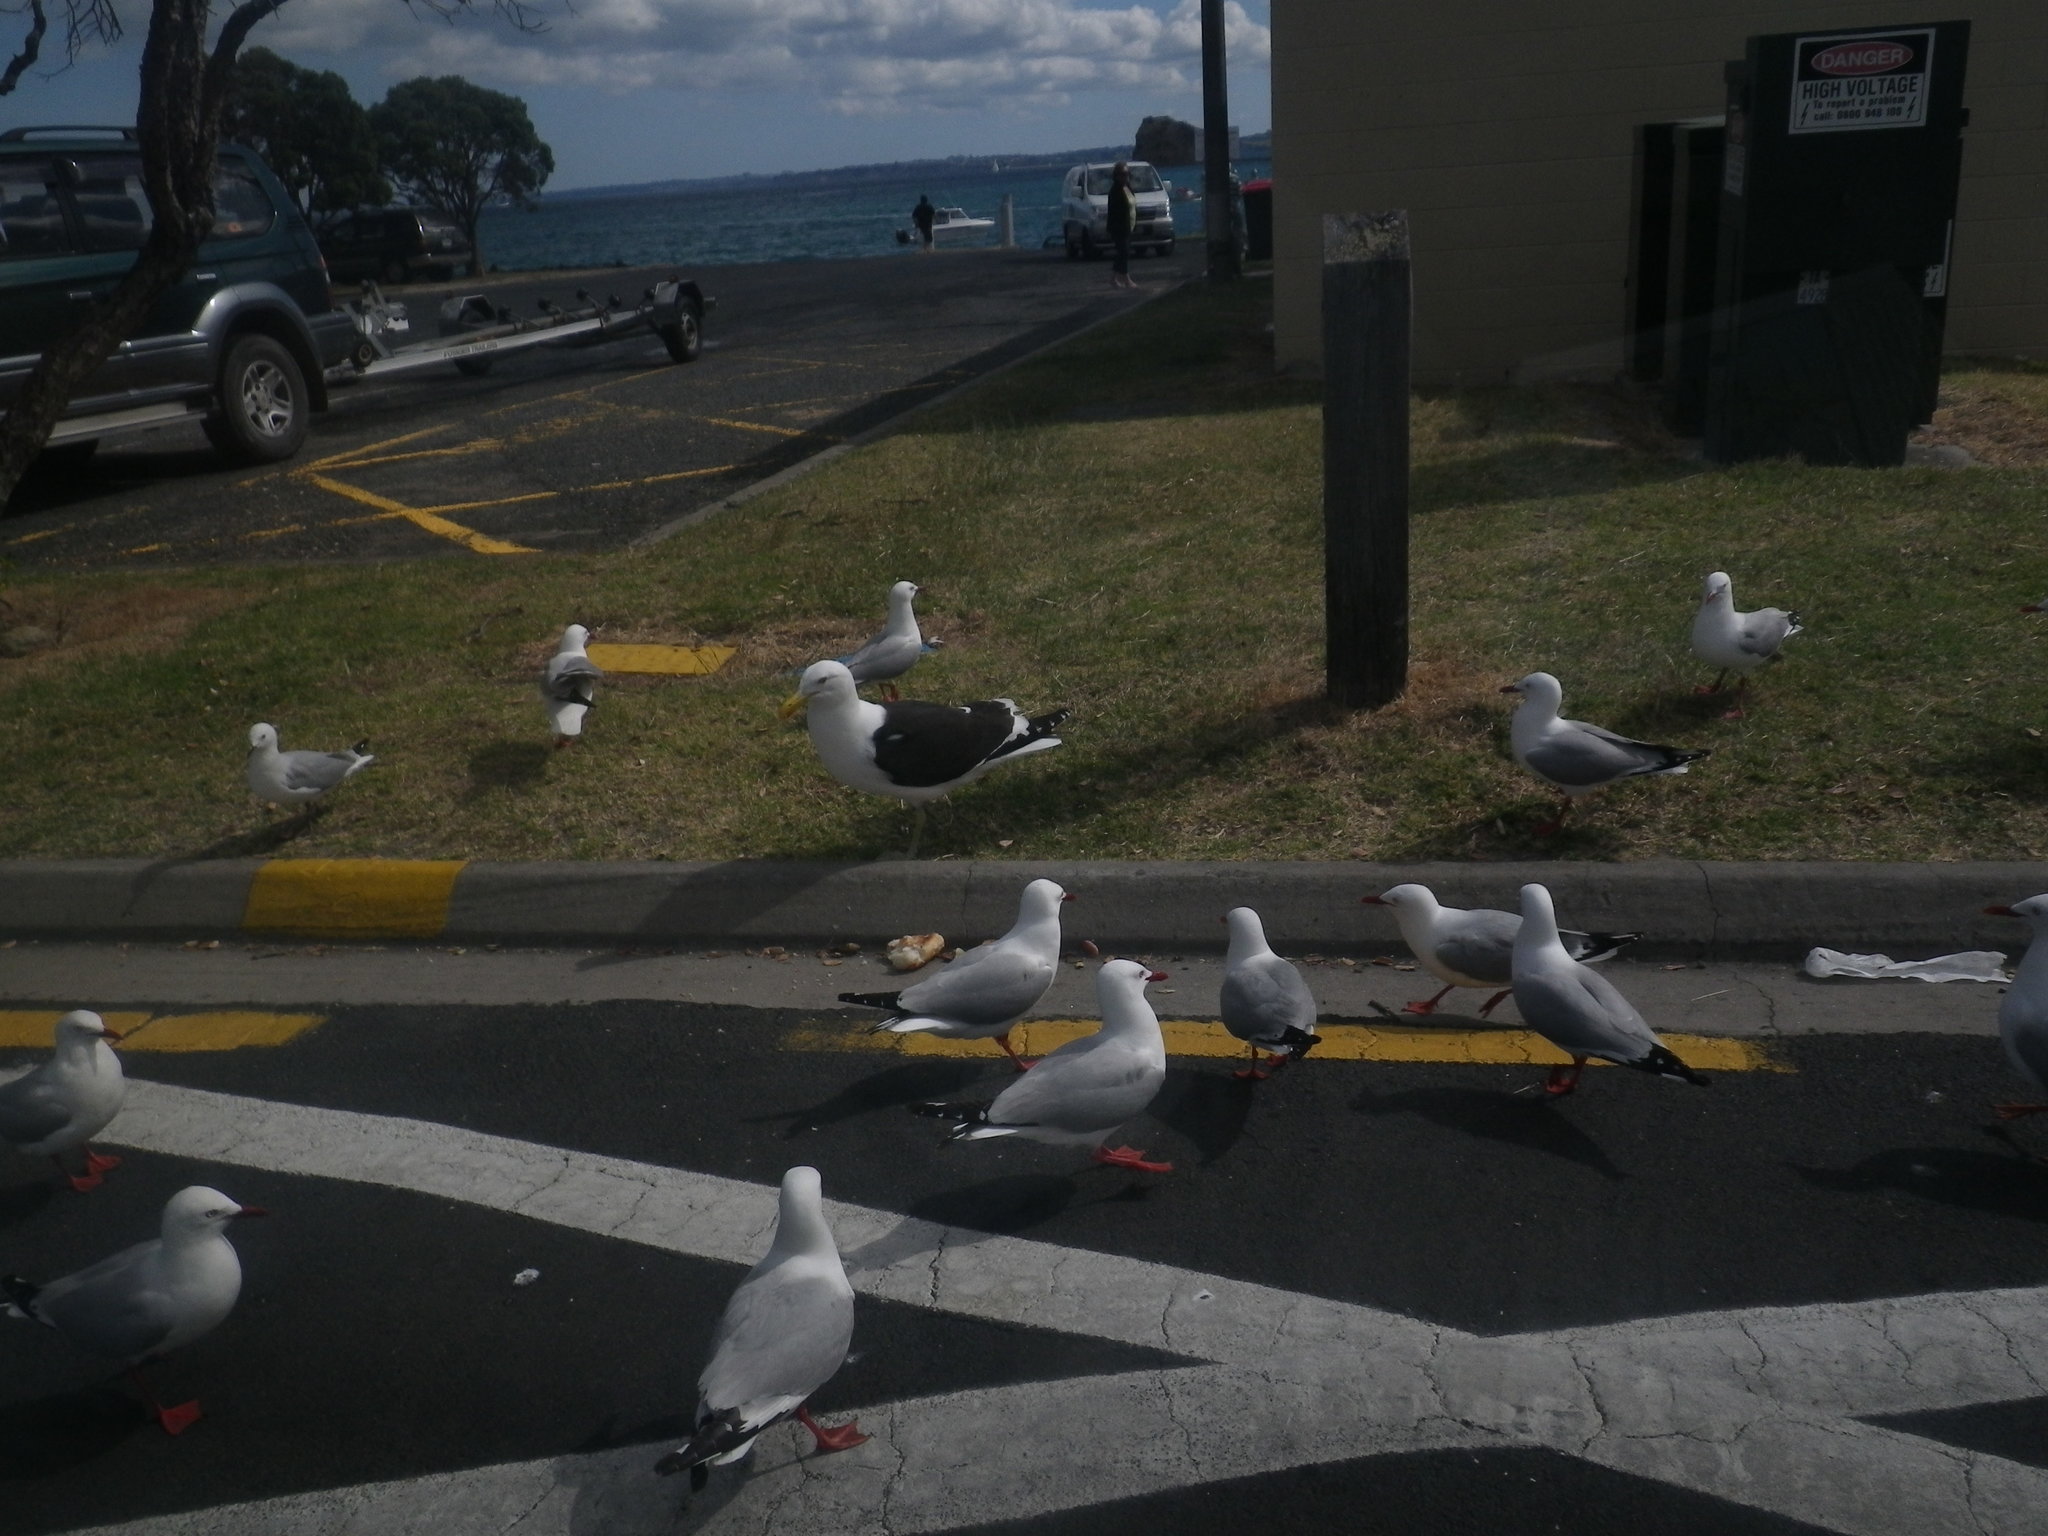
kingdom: Animalia
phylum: Chordata
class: Aves
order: Charadriiformes
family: Laridae
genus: Larus
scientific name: Larus dominicanus
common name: Kelp gull
